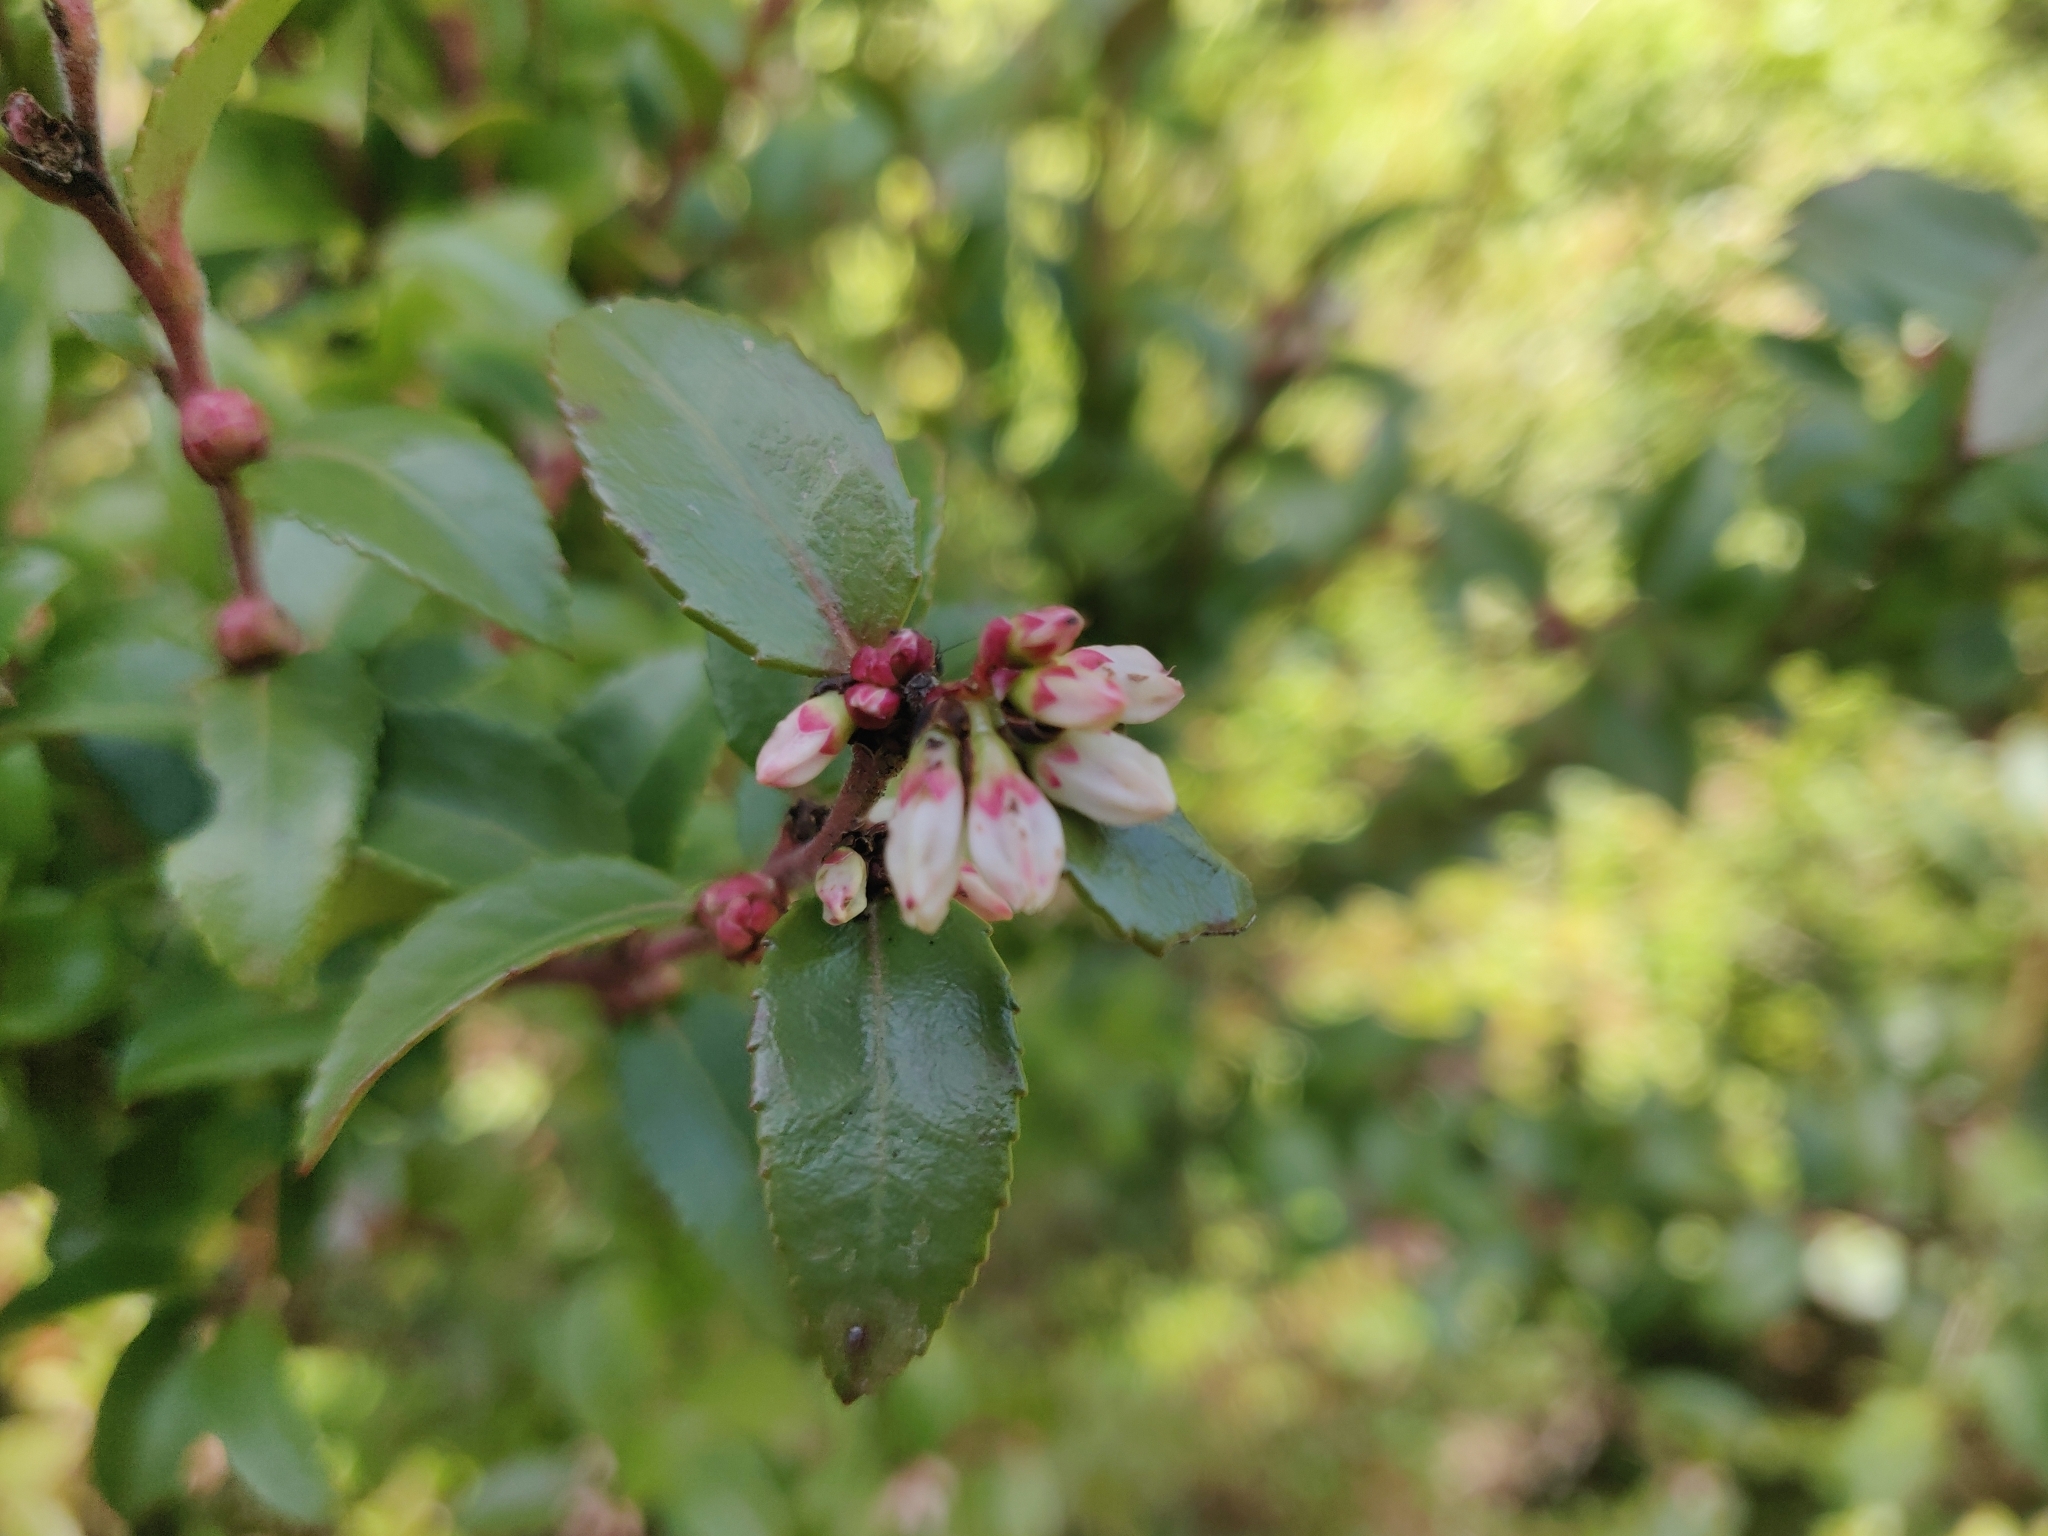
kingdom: Plantae
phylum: Tracheophyta
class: Magnoliopsida
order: Ericales
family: Ericaceae
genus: Vaccinium
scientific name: Vaccinium ovatum
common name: California-huckleberry
